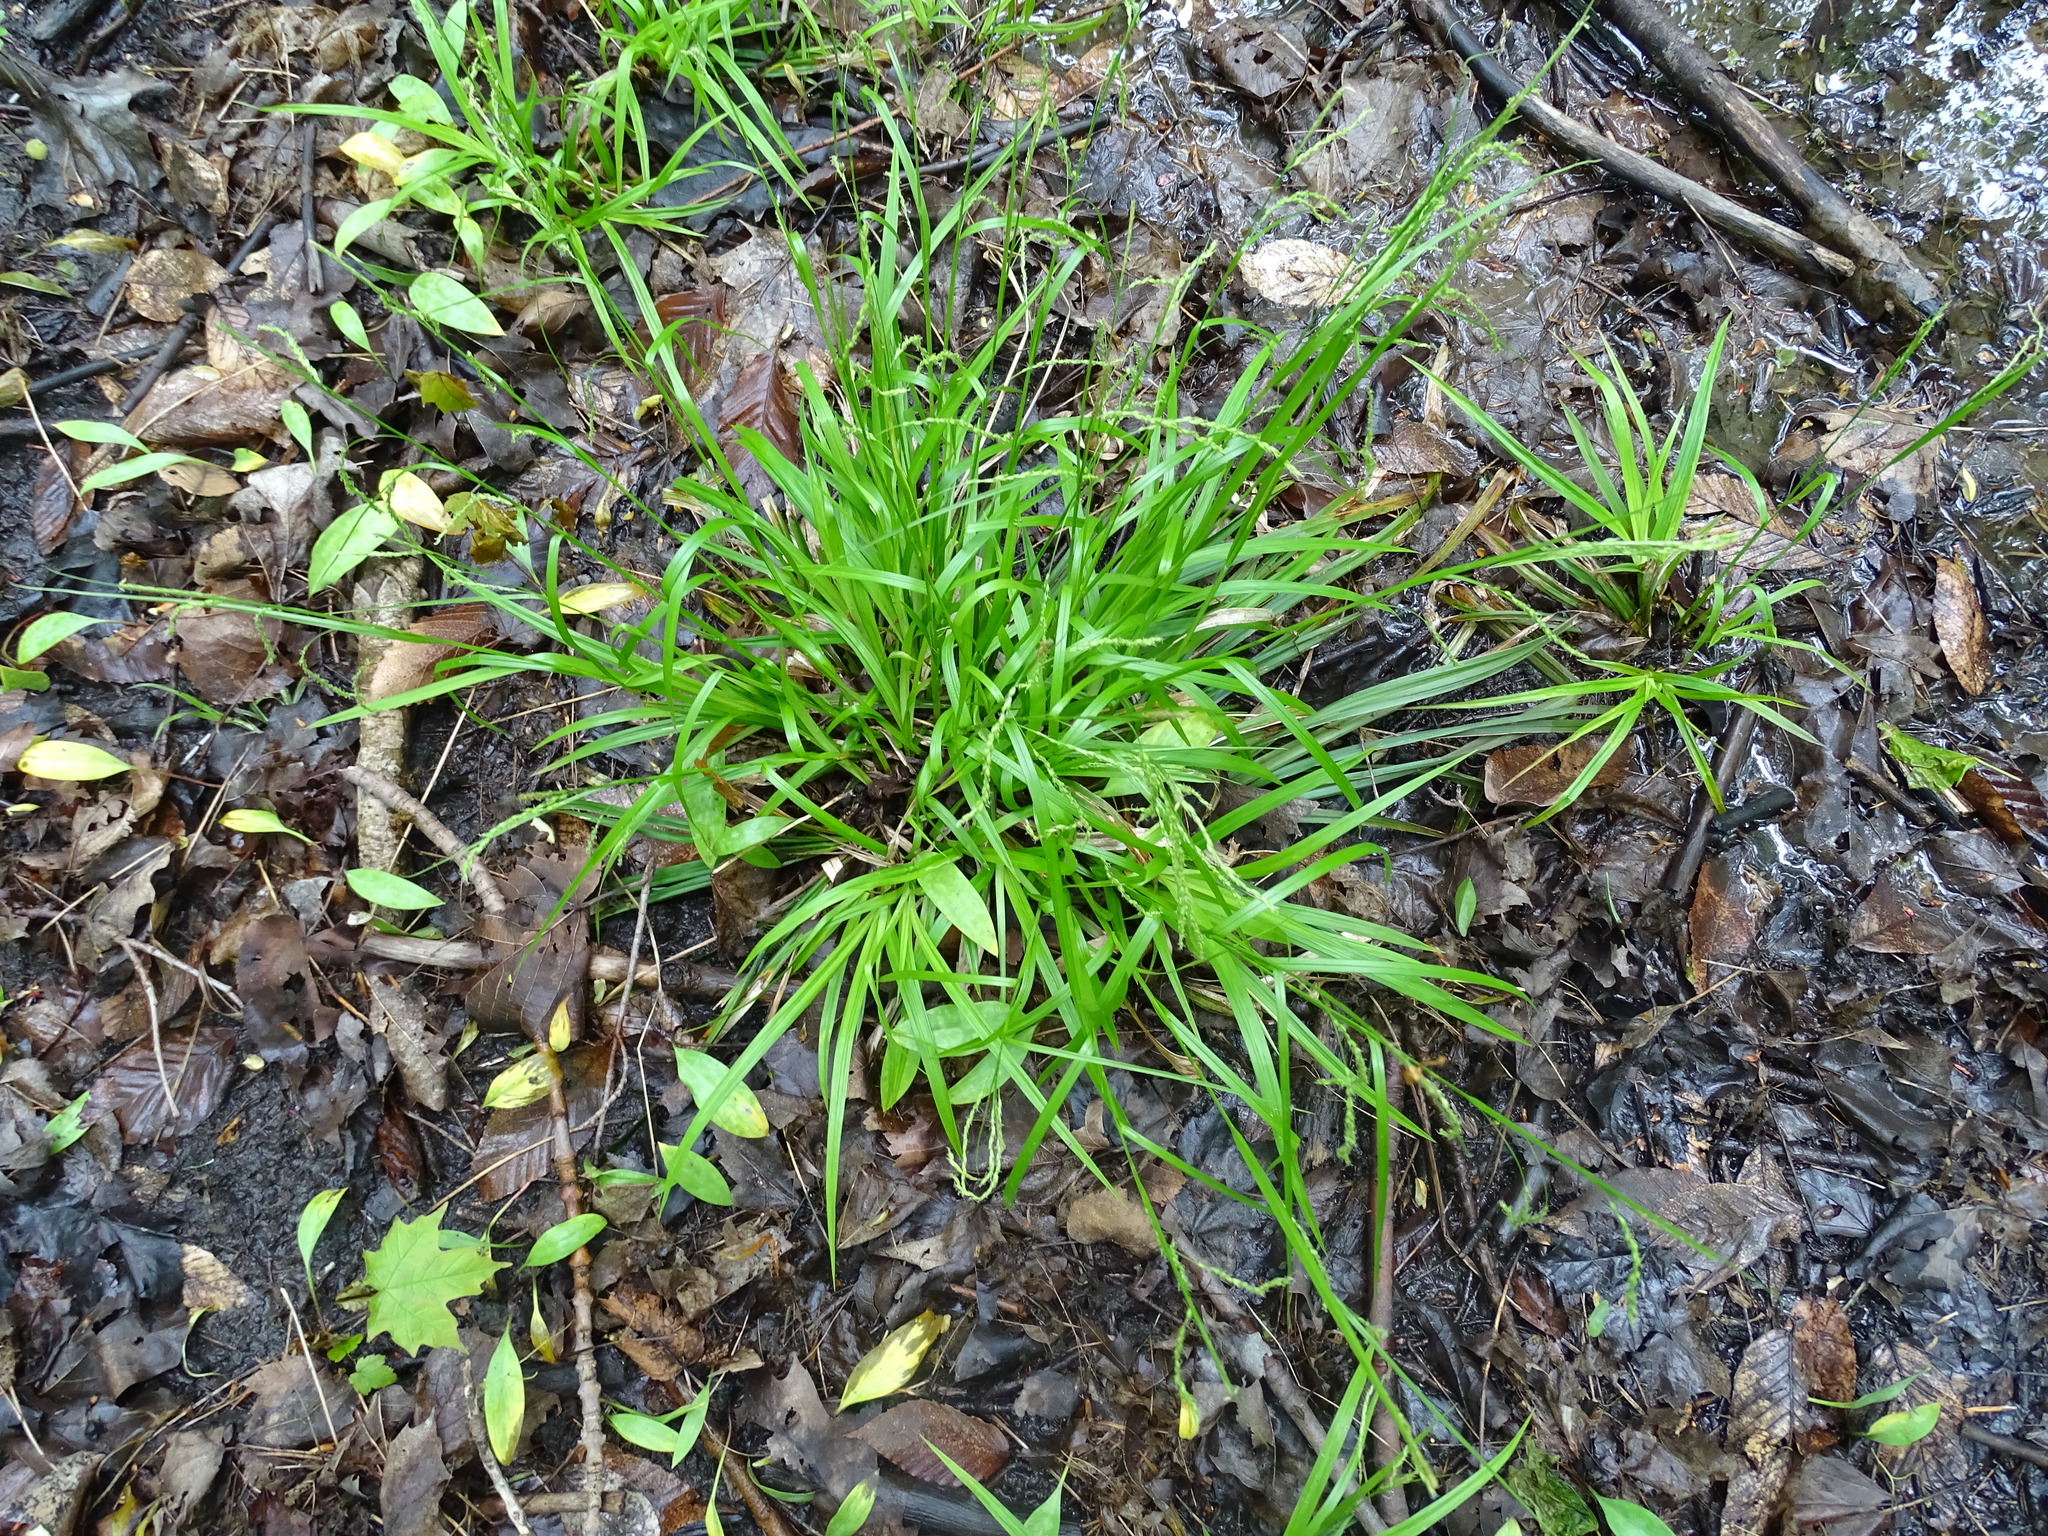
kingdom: Plantae
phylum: Tracheophyta
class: Liliopsida
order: Poales
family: Cyperaceae
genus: Carex
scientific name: Carex arctata
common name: Black sedge
